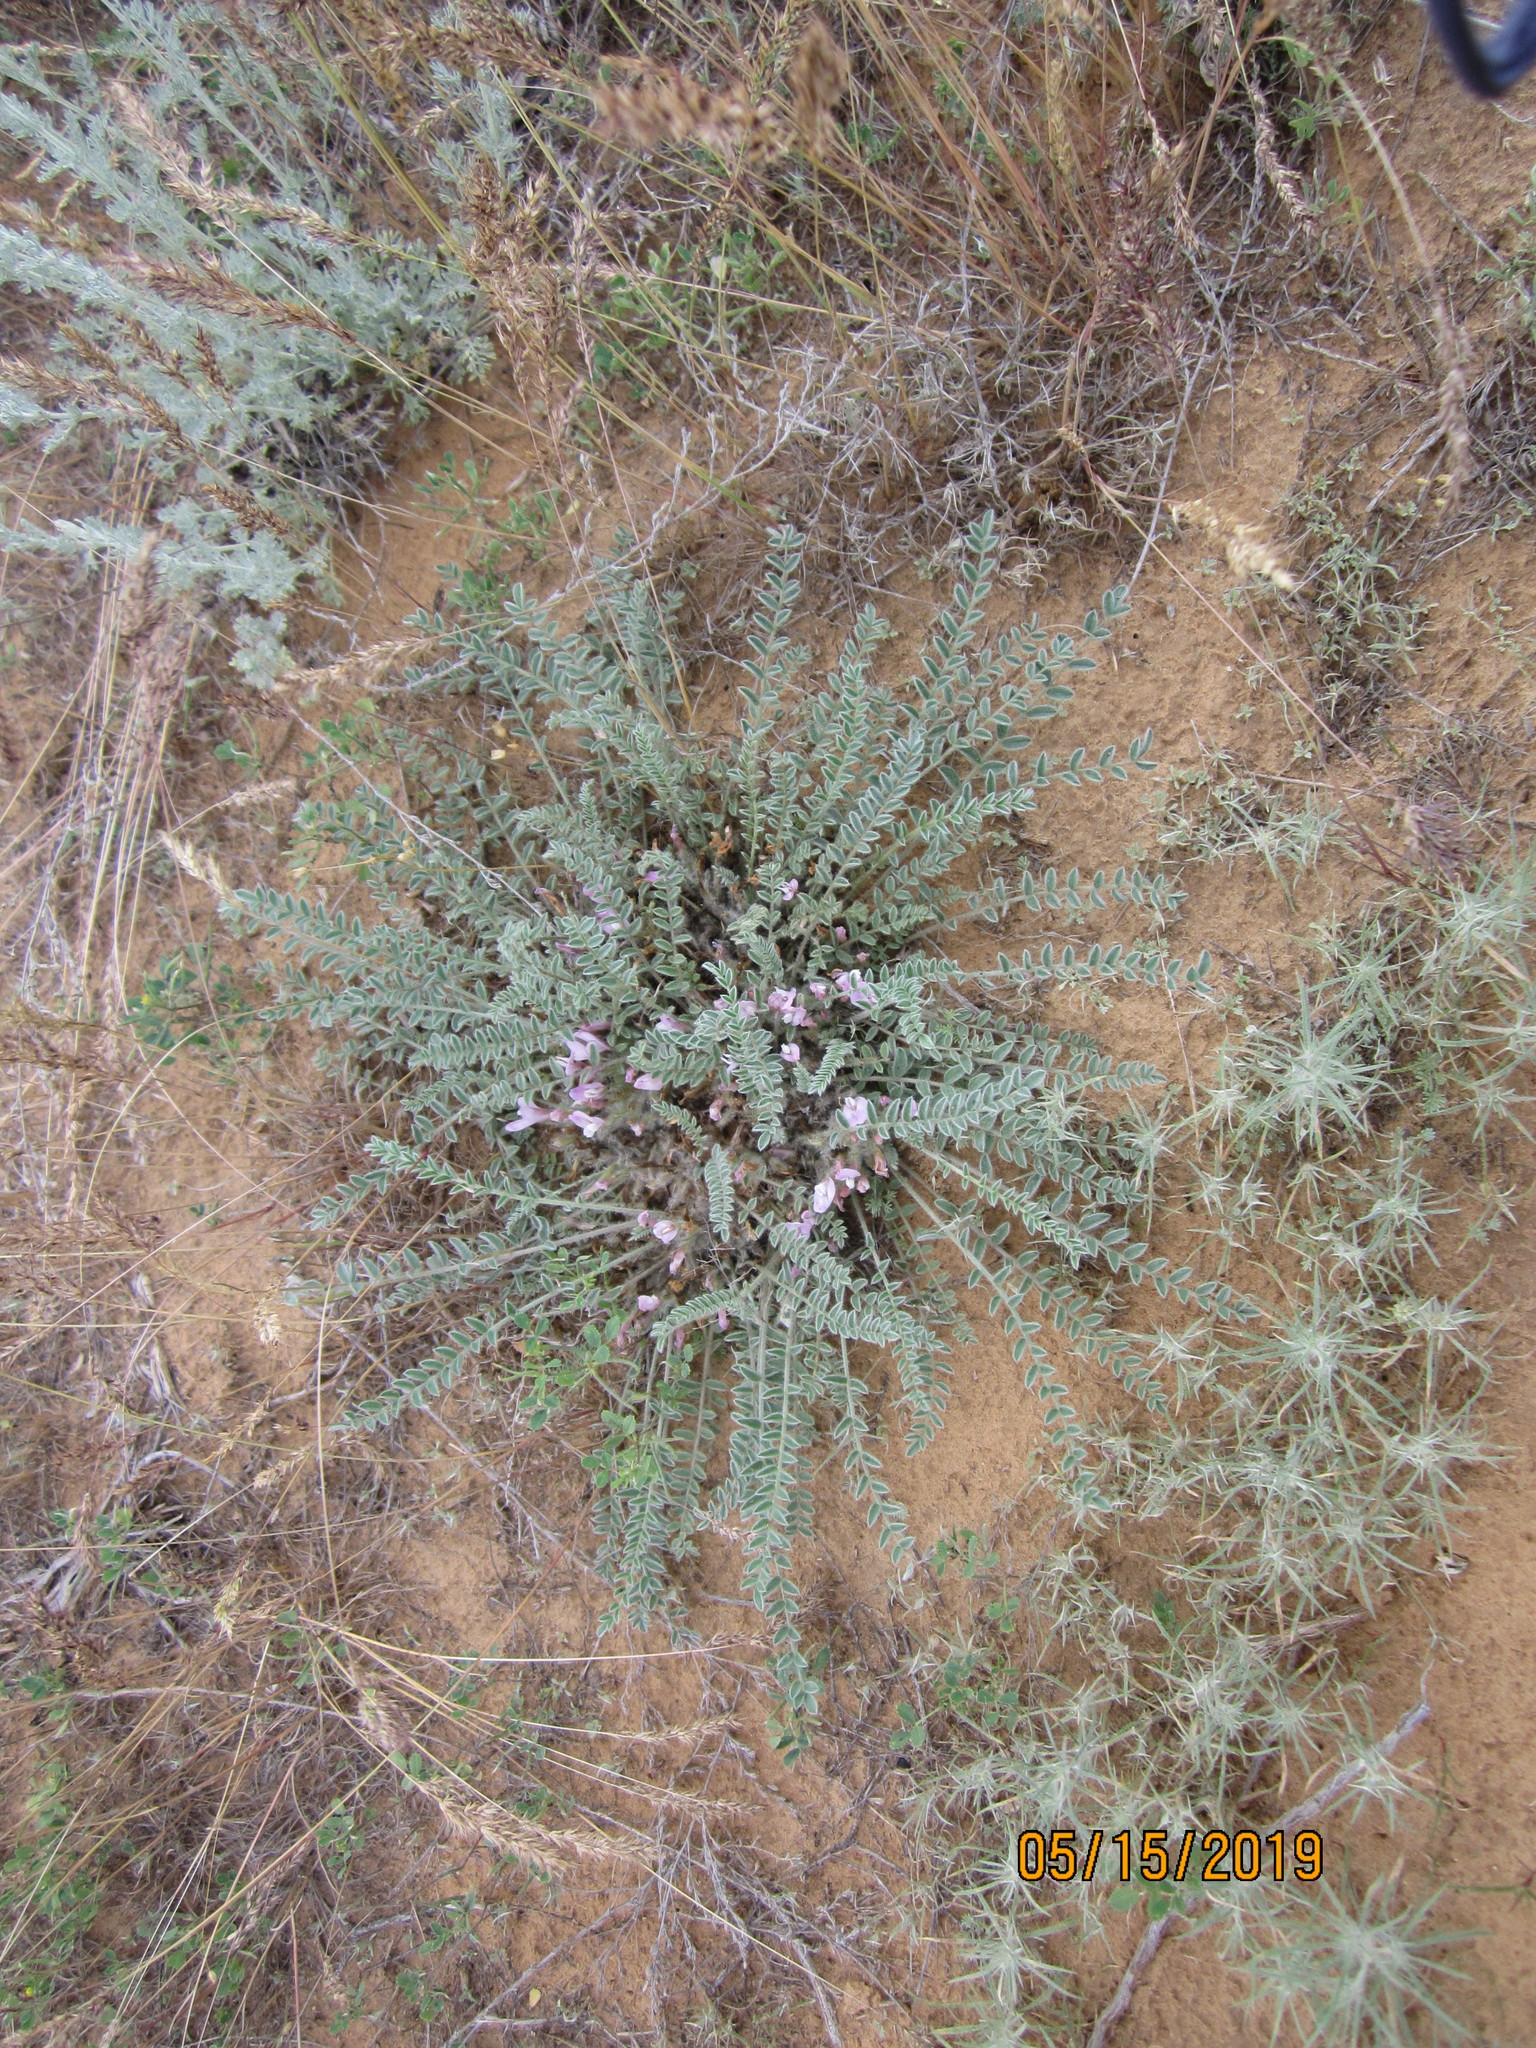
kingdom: Plantae
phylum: Tracheophyta
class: Magnoliopsida
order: Fabales
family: Fabaceae
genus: Astragalus
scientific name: Astragalus testiculatus
